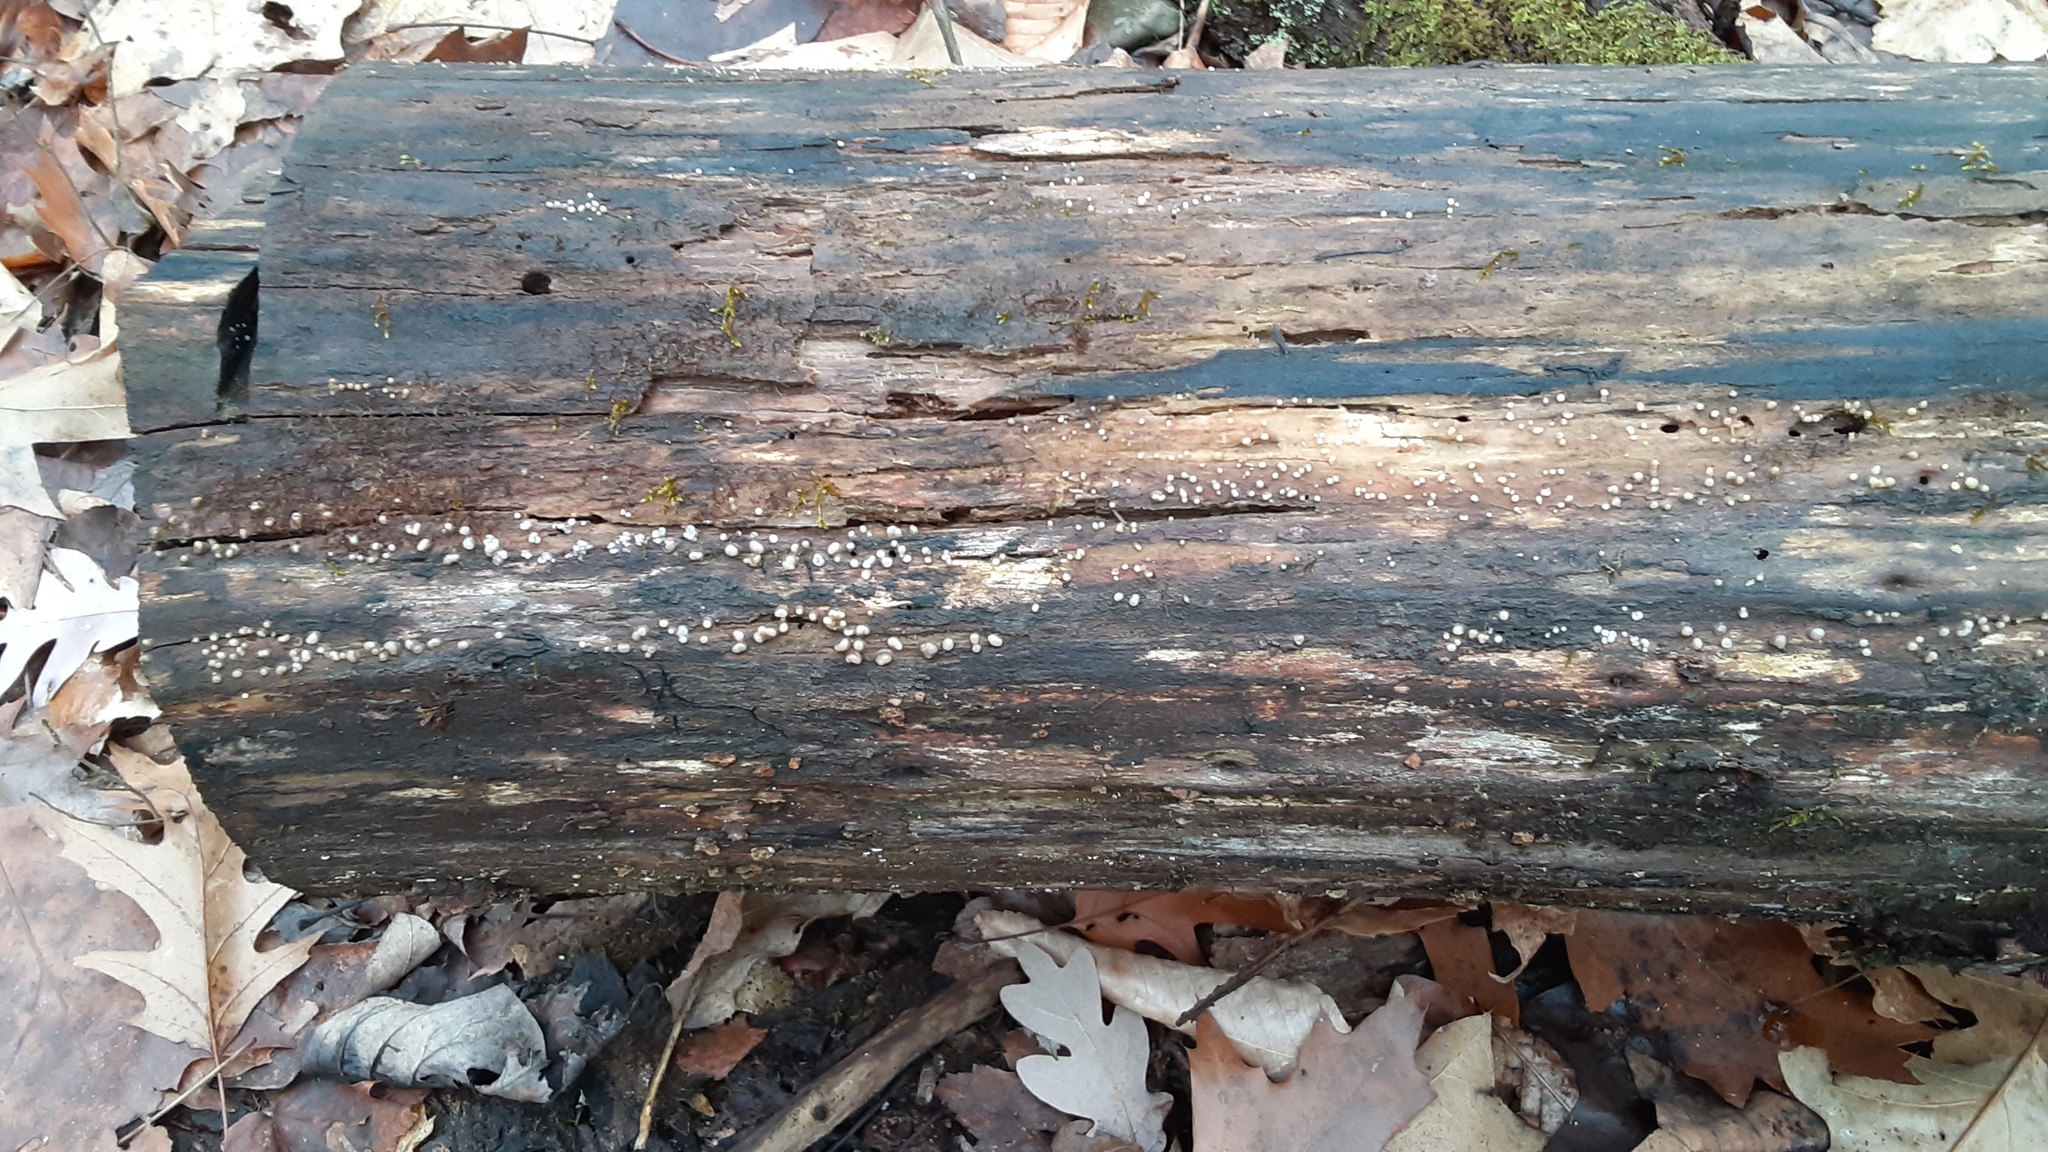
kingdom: Fungi
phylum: Basidiomycota
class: Atractiellomycetes
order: Atractiellales
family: Phleogenaceae
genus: Helicogloea
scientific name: Helicogloea compressa
